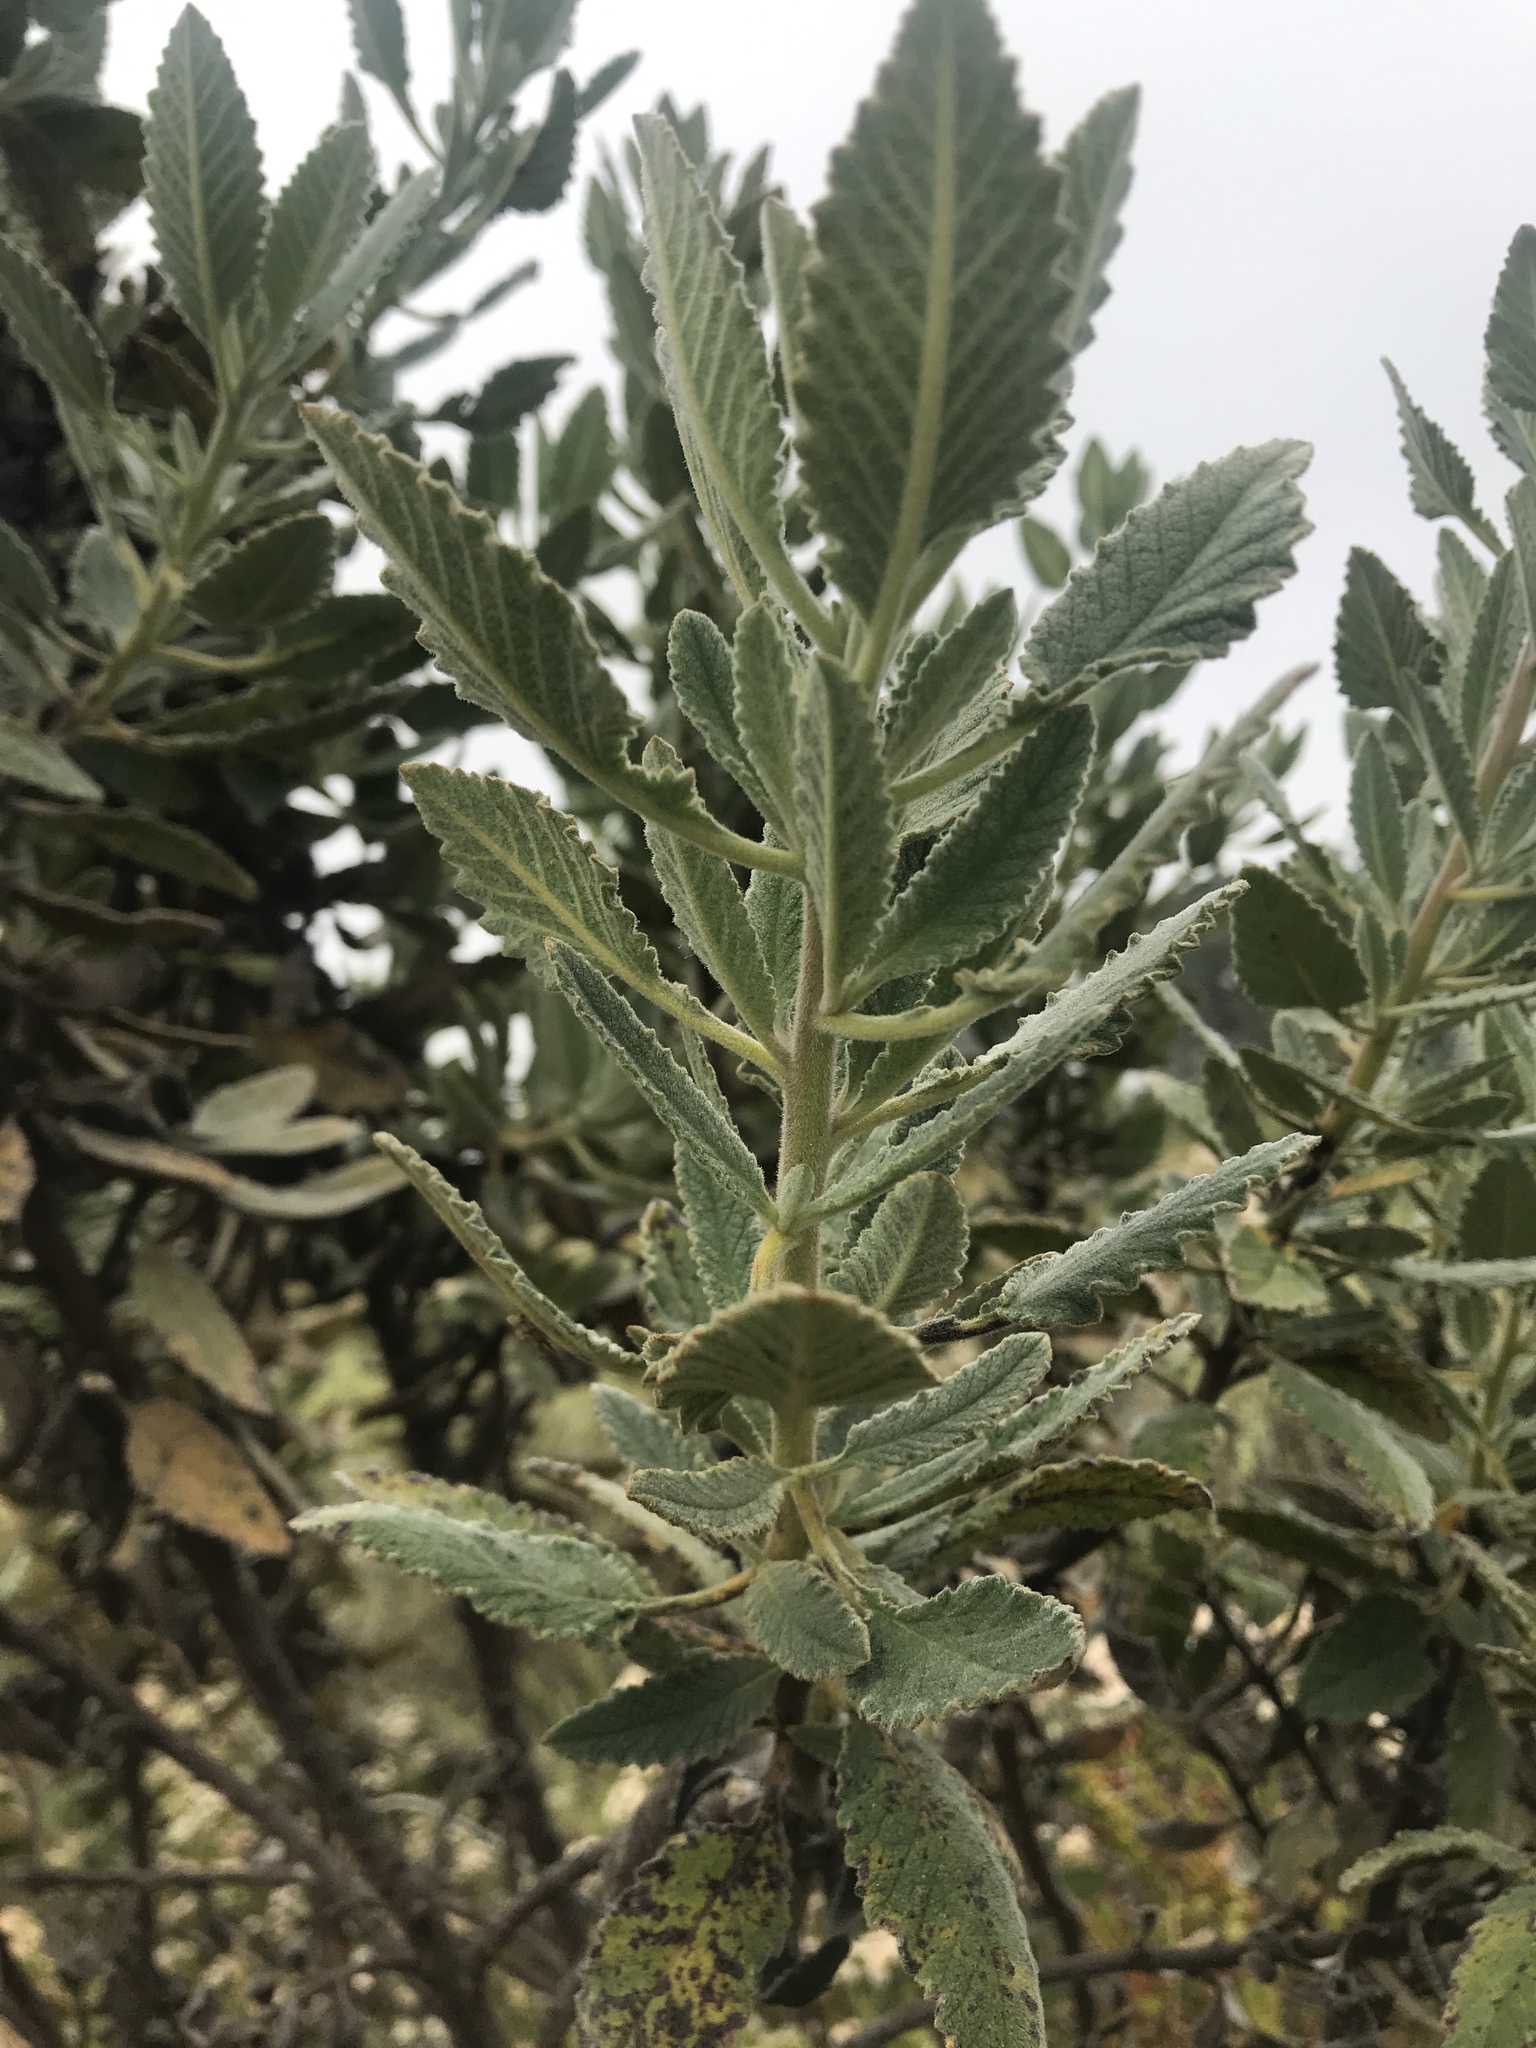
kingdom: Plantae
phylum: Tracheophyta
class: Magnoliopsida
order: Boraginales
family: Namaceae
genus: Eriodictyon
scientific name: Eriodictyon crassifolium
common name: Thick-leaf yerba-santa
